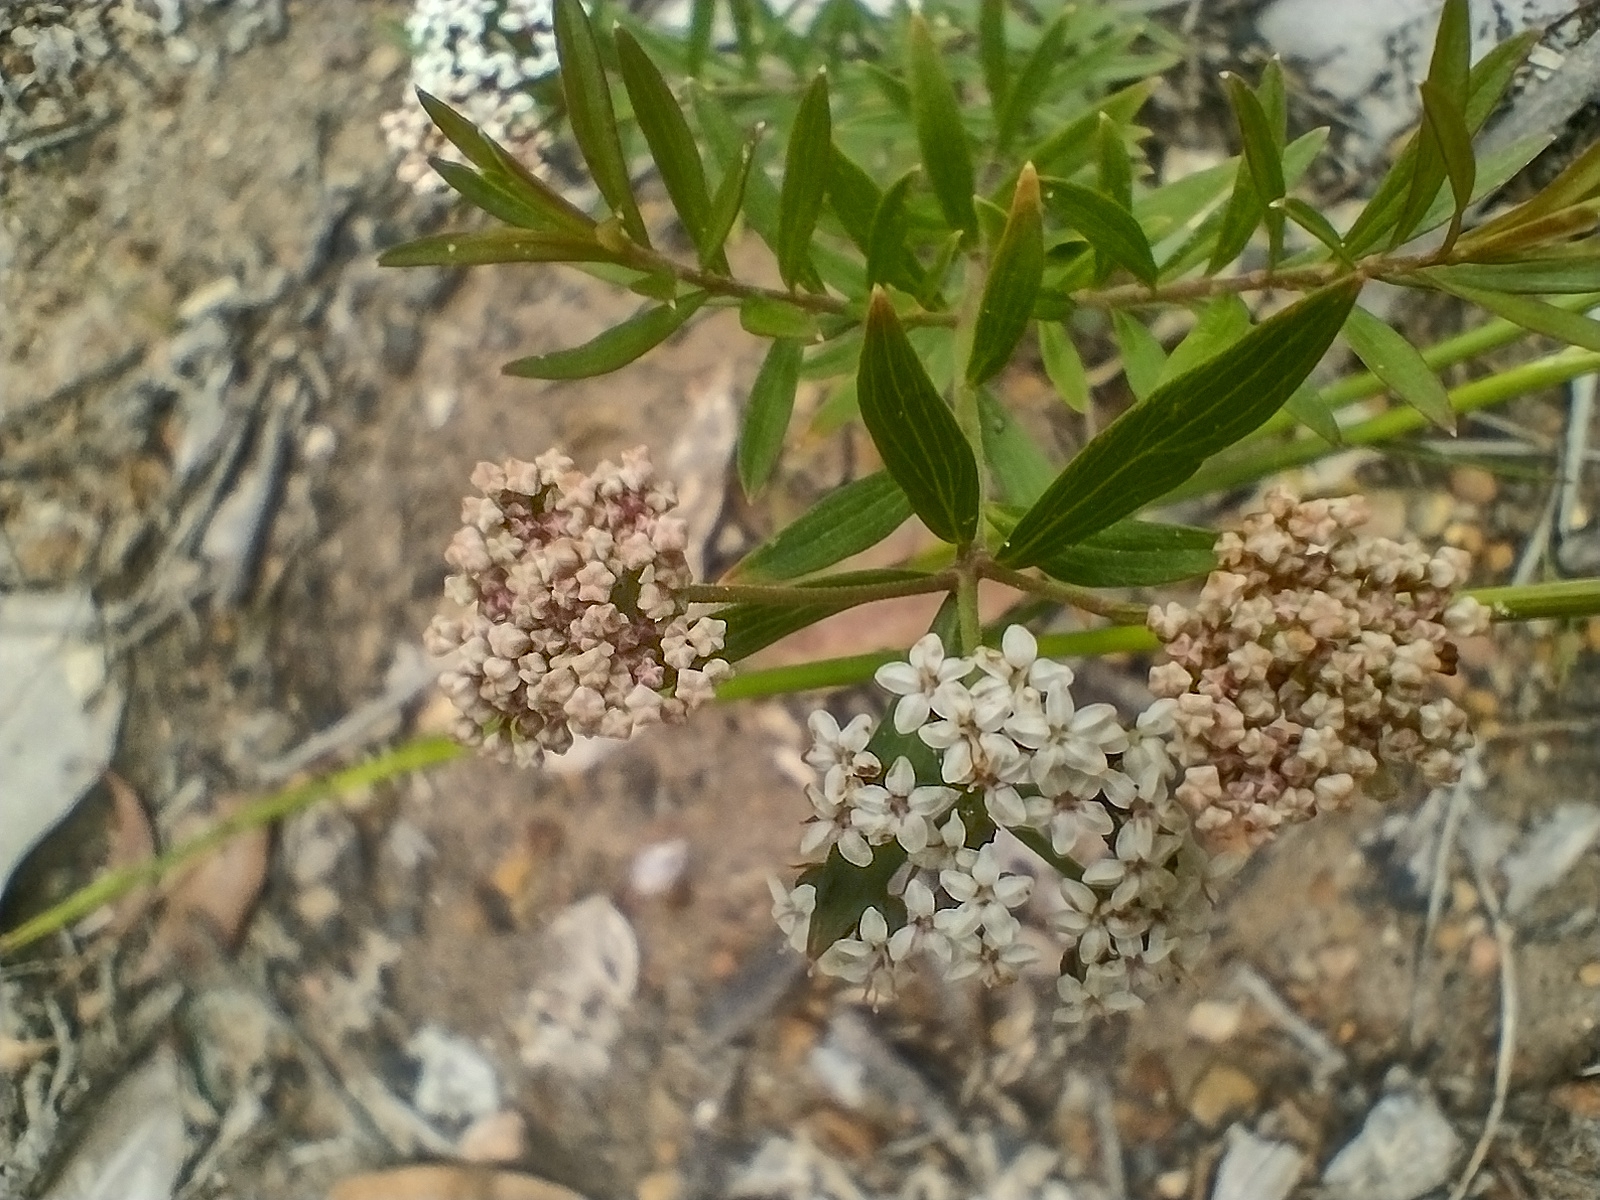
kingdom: Plantae
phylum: Tracheophyta
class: Magnoliopsida
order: Apiales
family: Apiaceae
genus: Platysace
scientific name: Platysace lanceolata
